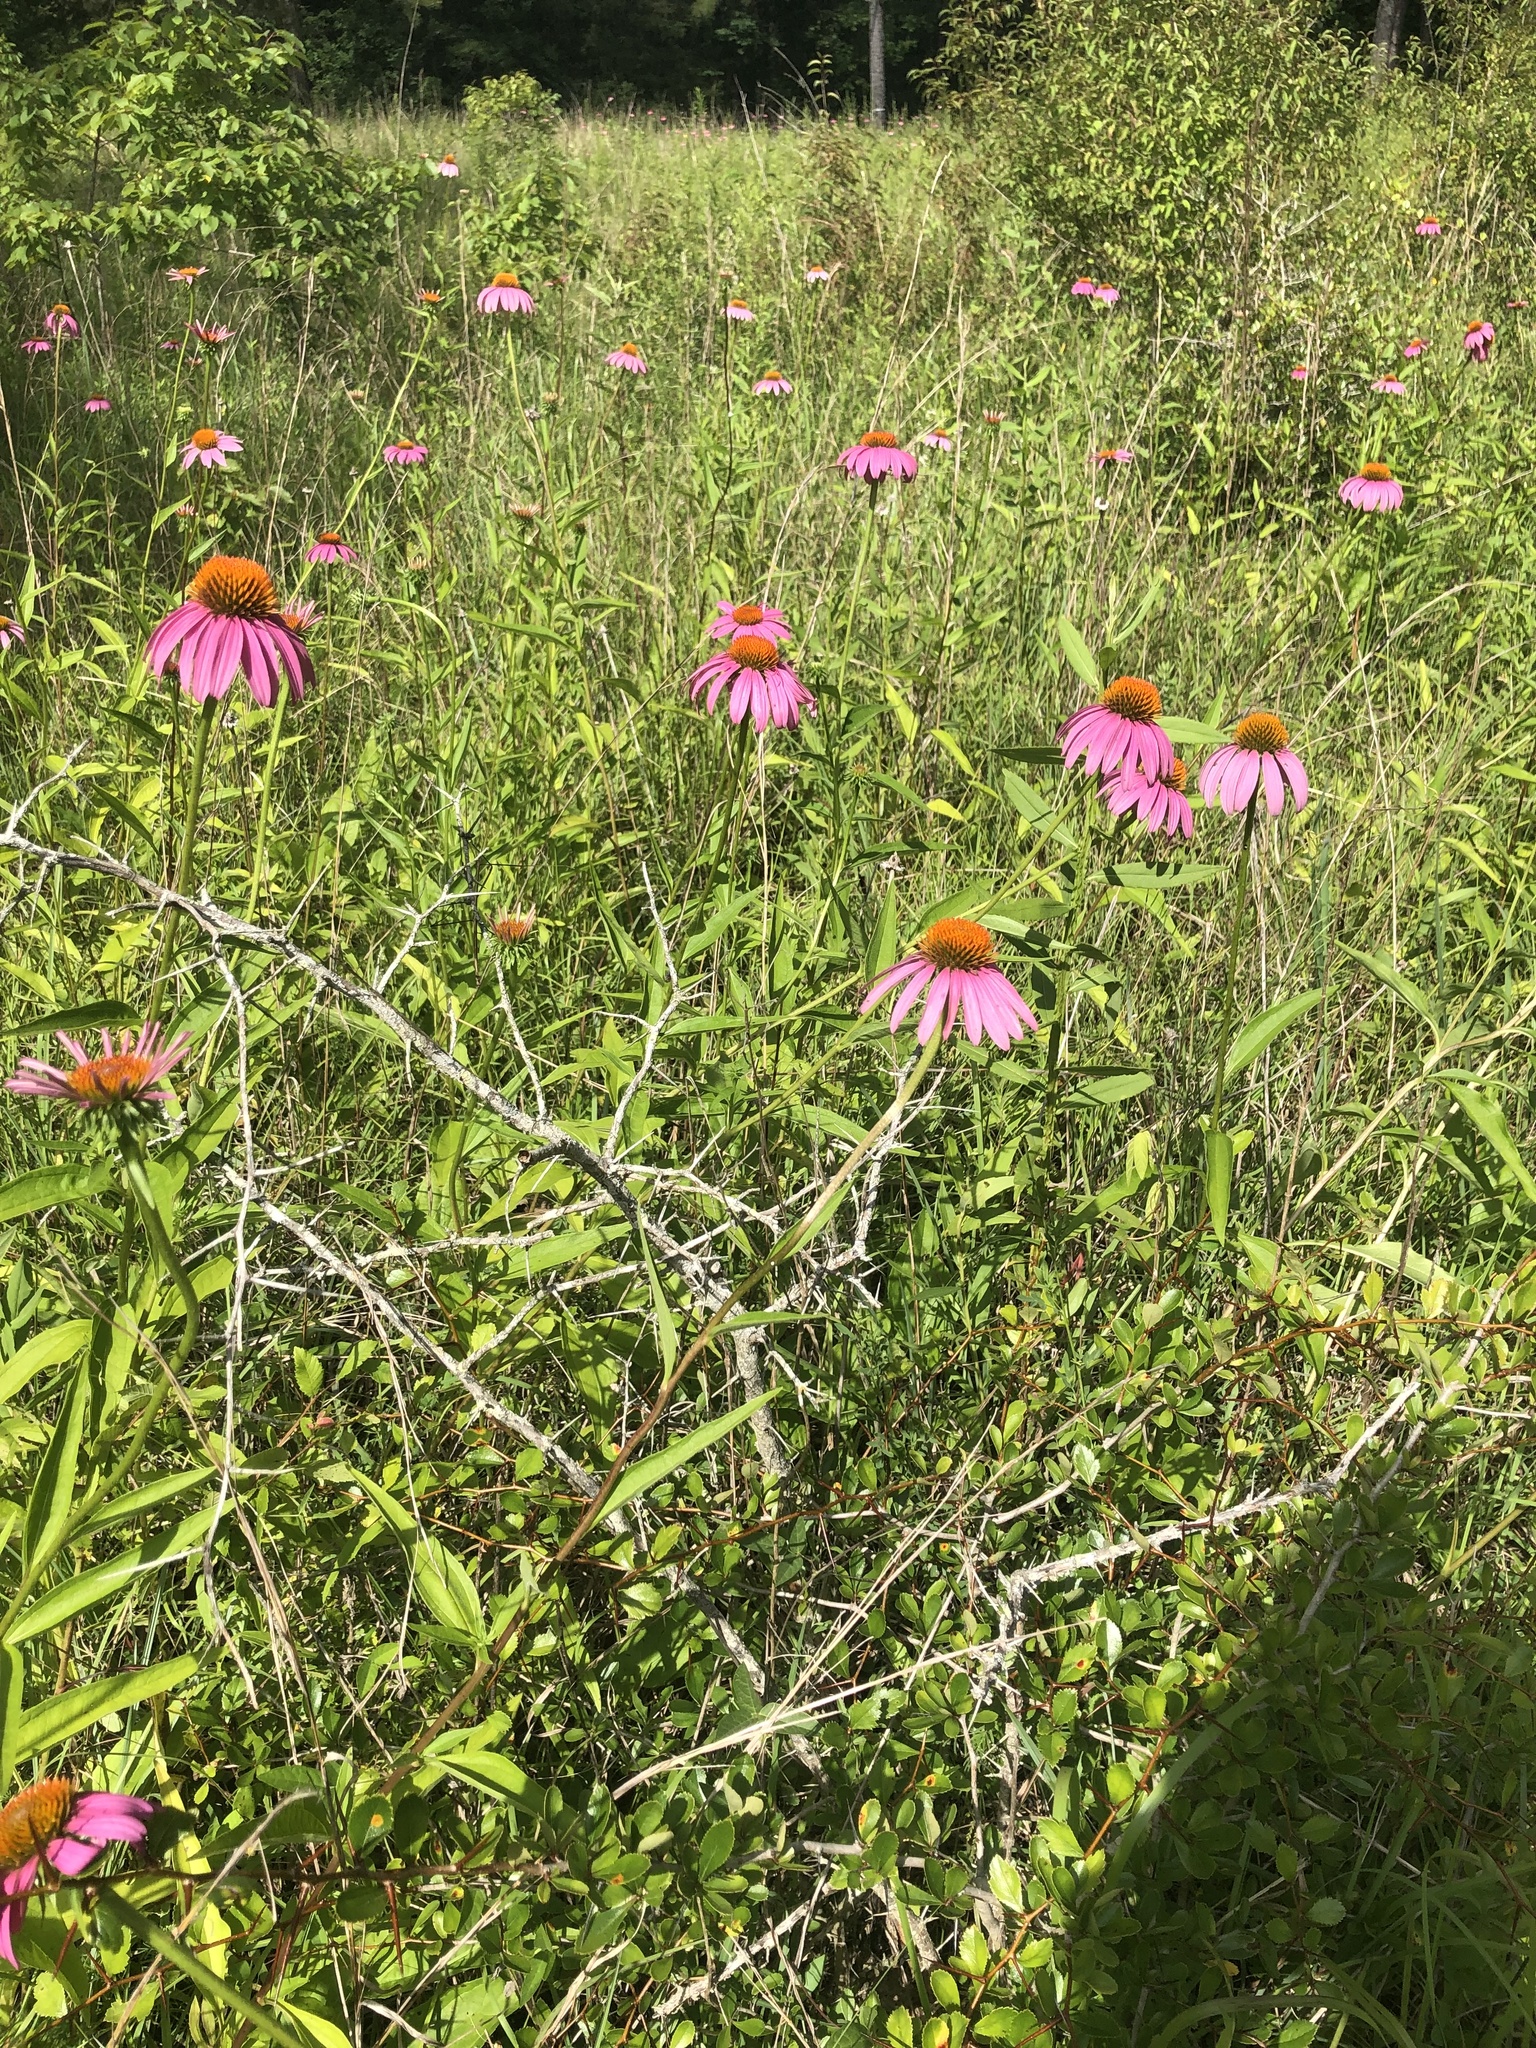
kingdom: Plantae
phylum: Tracheophyta
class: Magnoliopsida
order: Asterales
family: Asteraceae
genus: Echinacea
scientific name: Echinacea purpurea
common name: Broad-leaved purple coneflower
